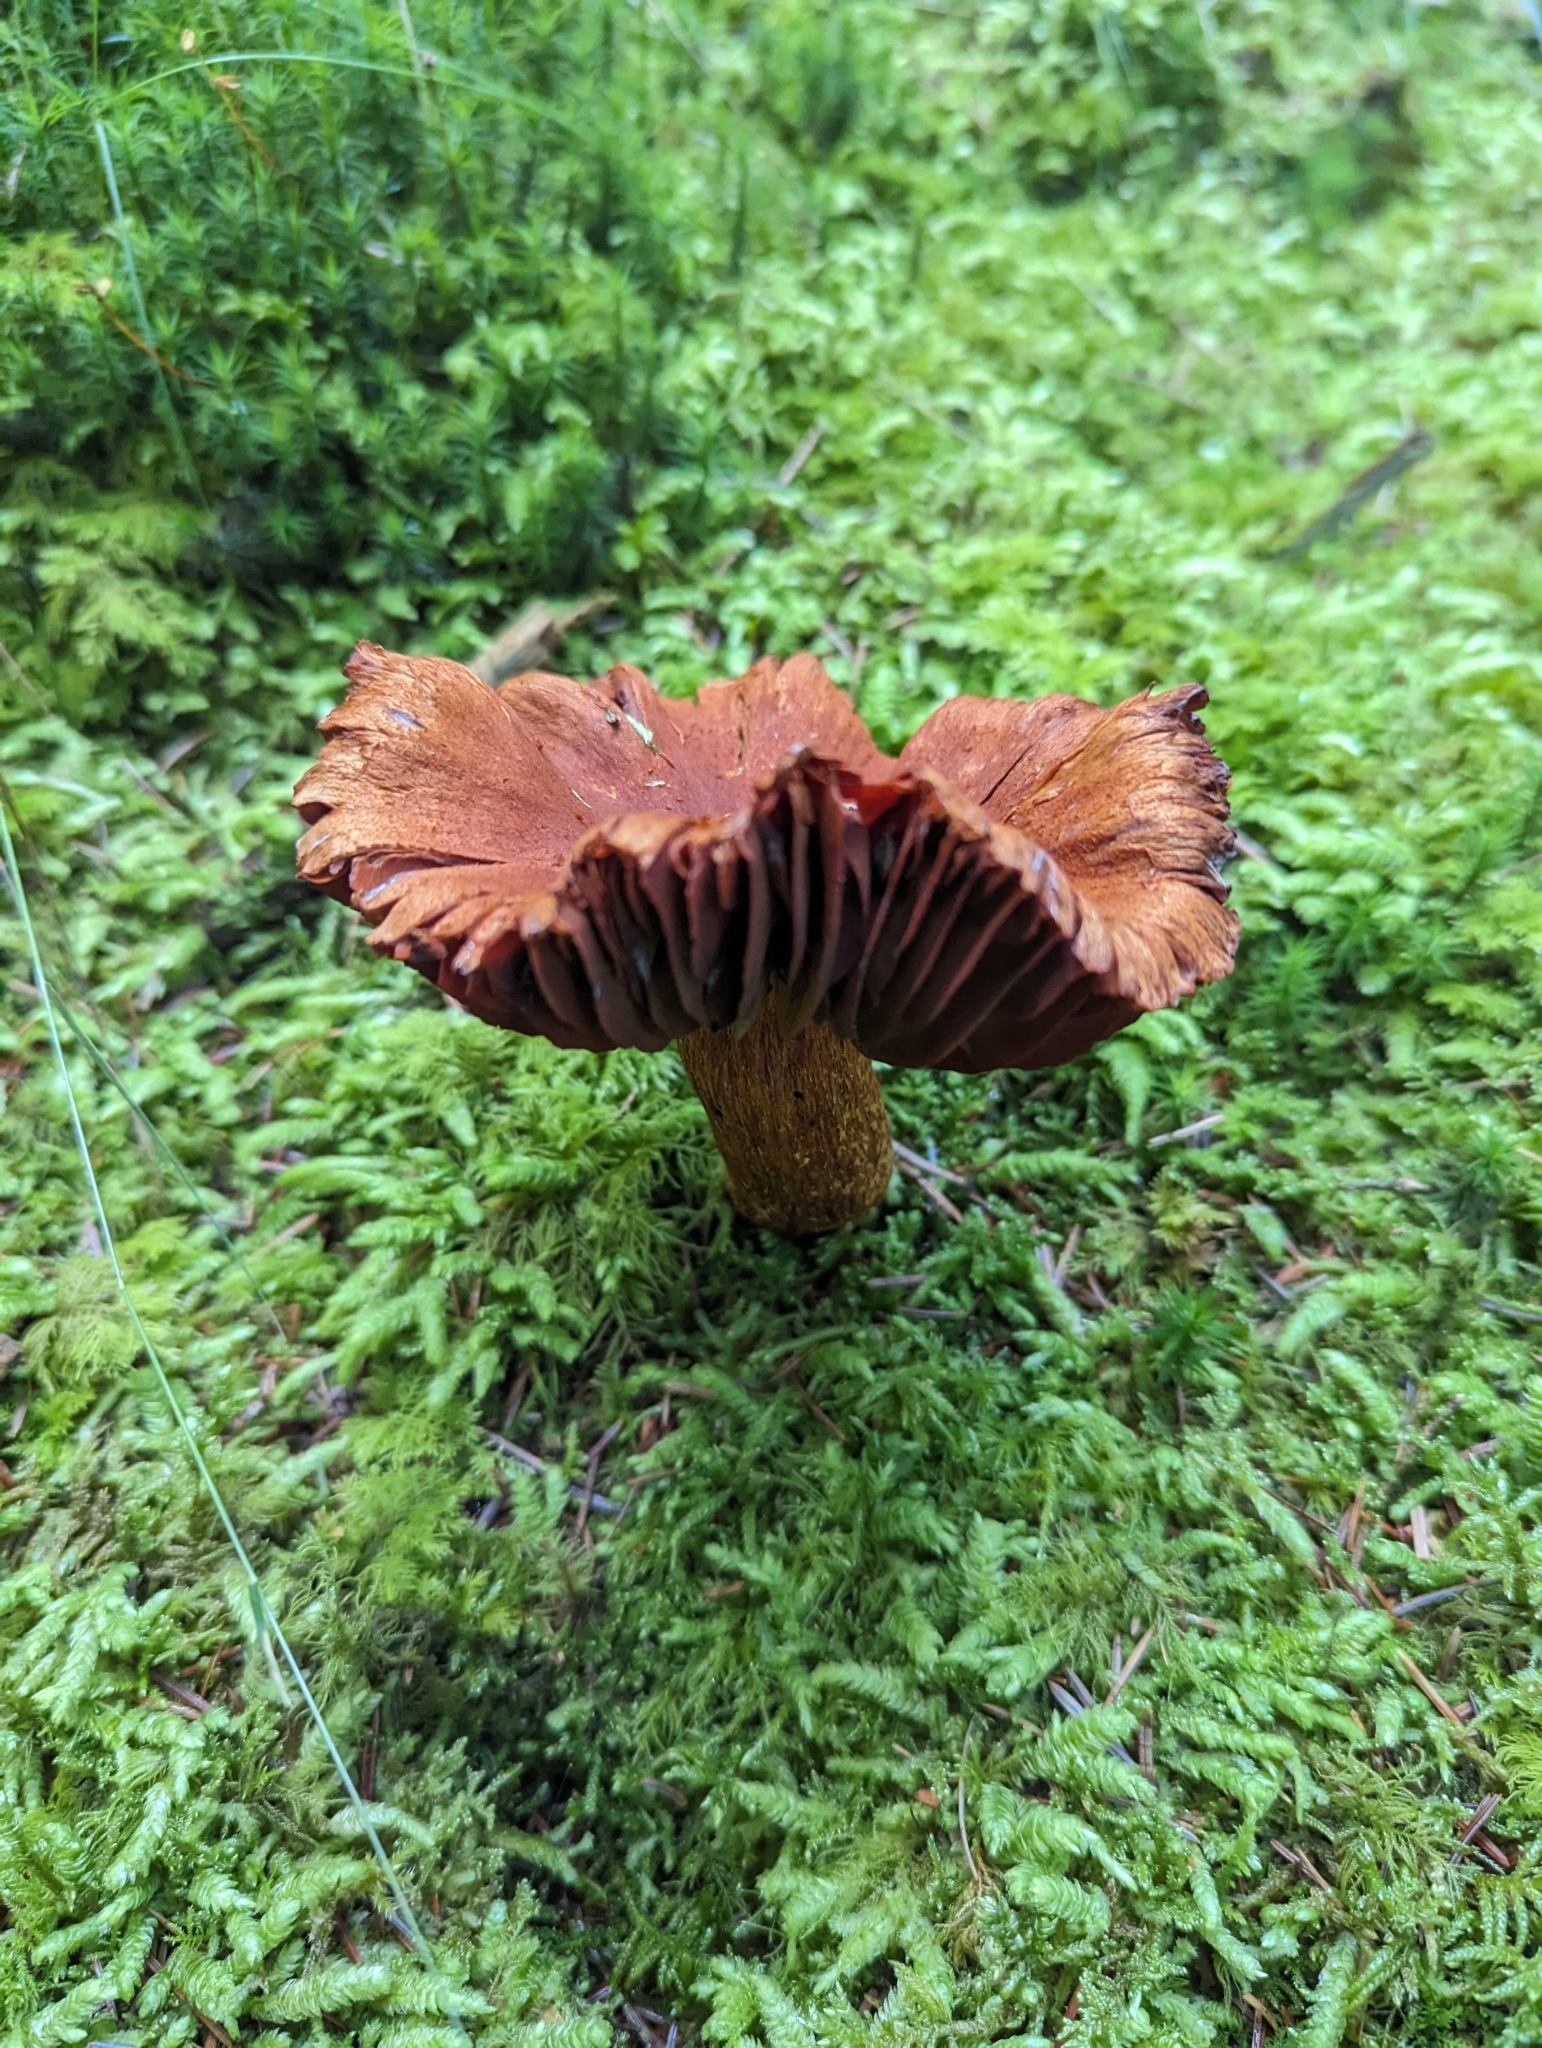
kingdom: Fungi
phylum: Basidiomycota
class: Agaricomycetes
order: Agaricales
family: Cortinariaceae
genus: Cortinarius
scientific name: Cortinarius rubellus
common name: Deadly webcap
